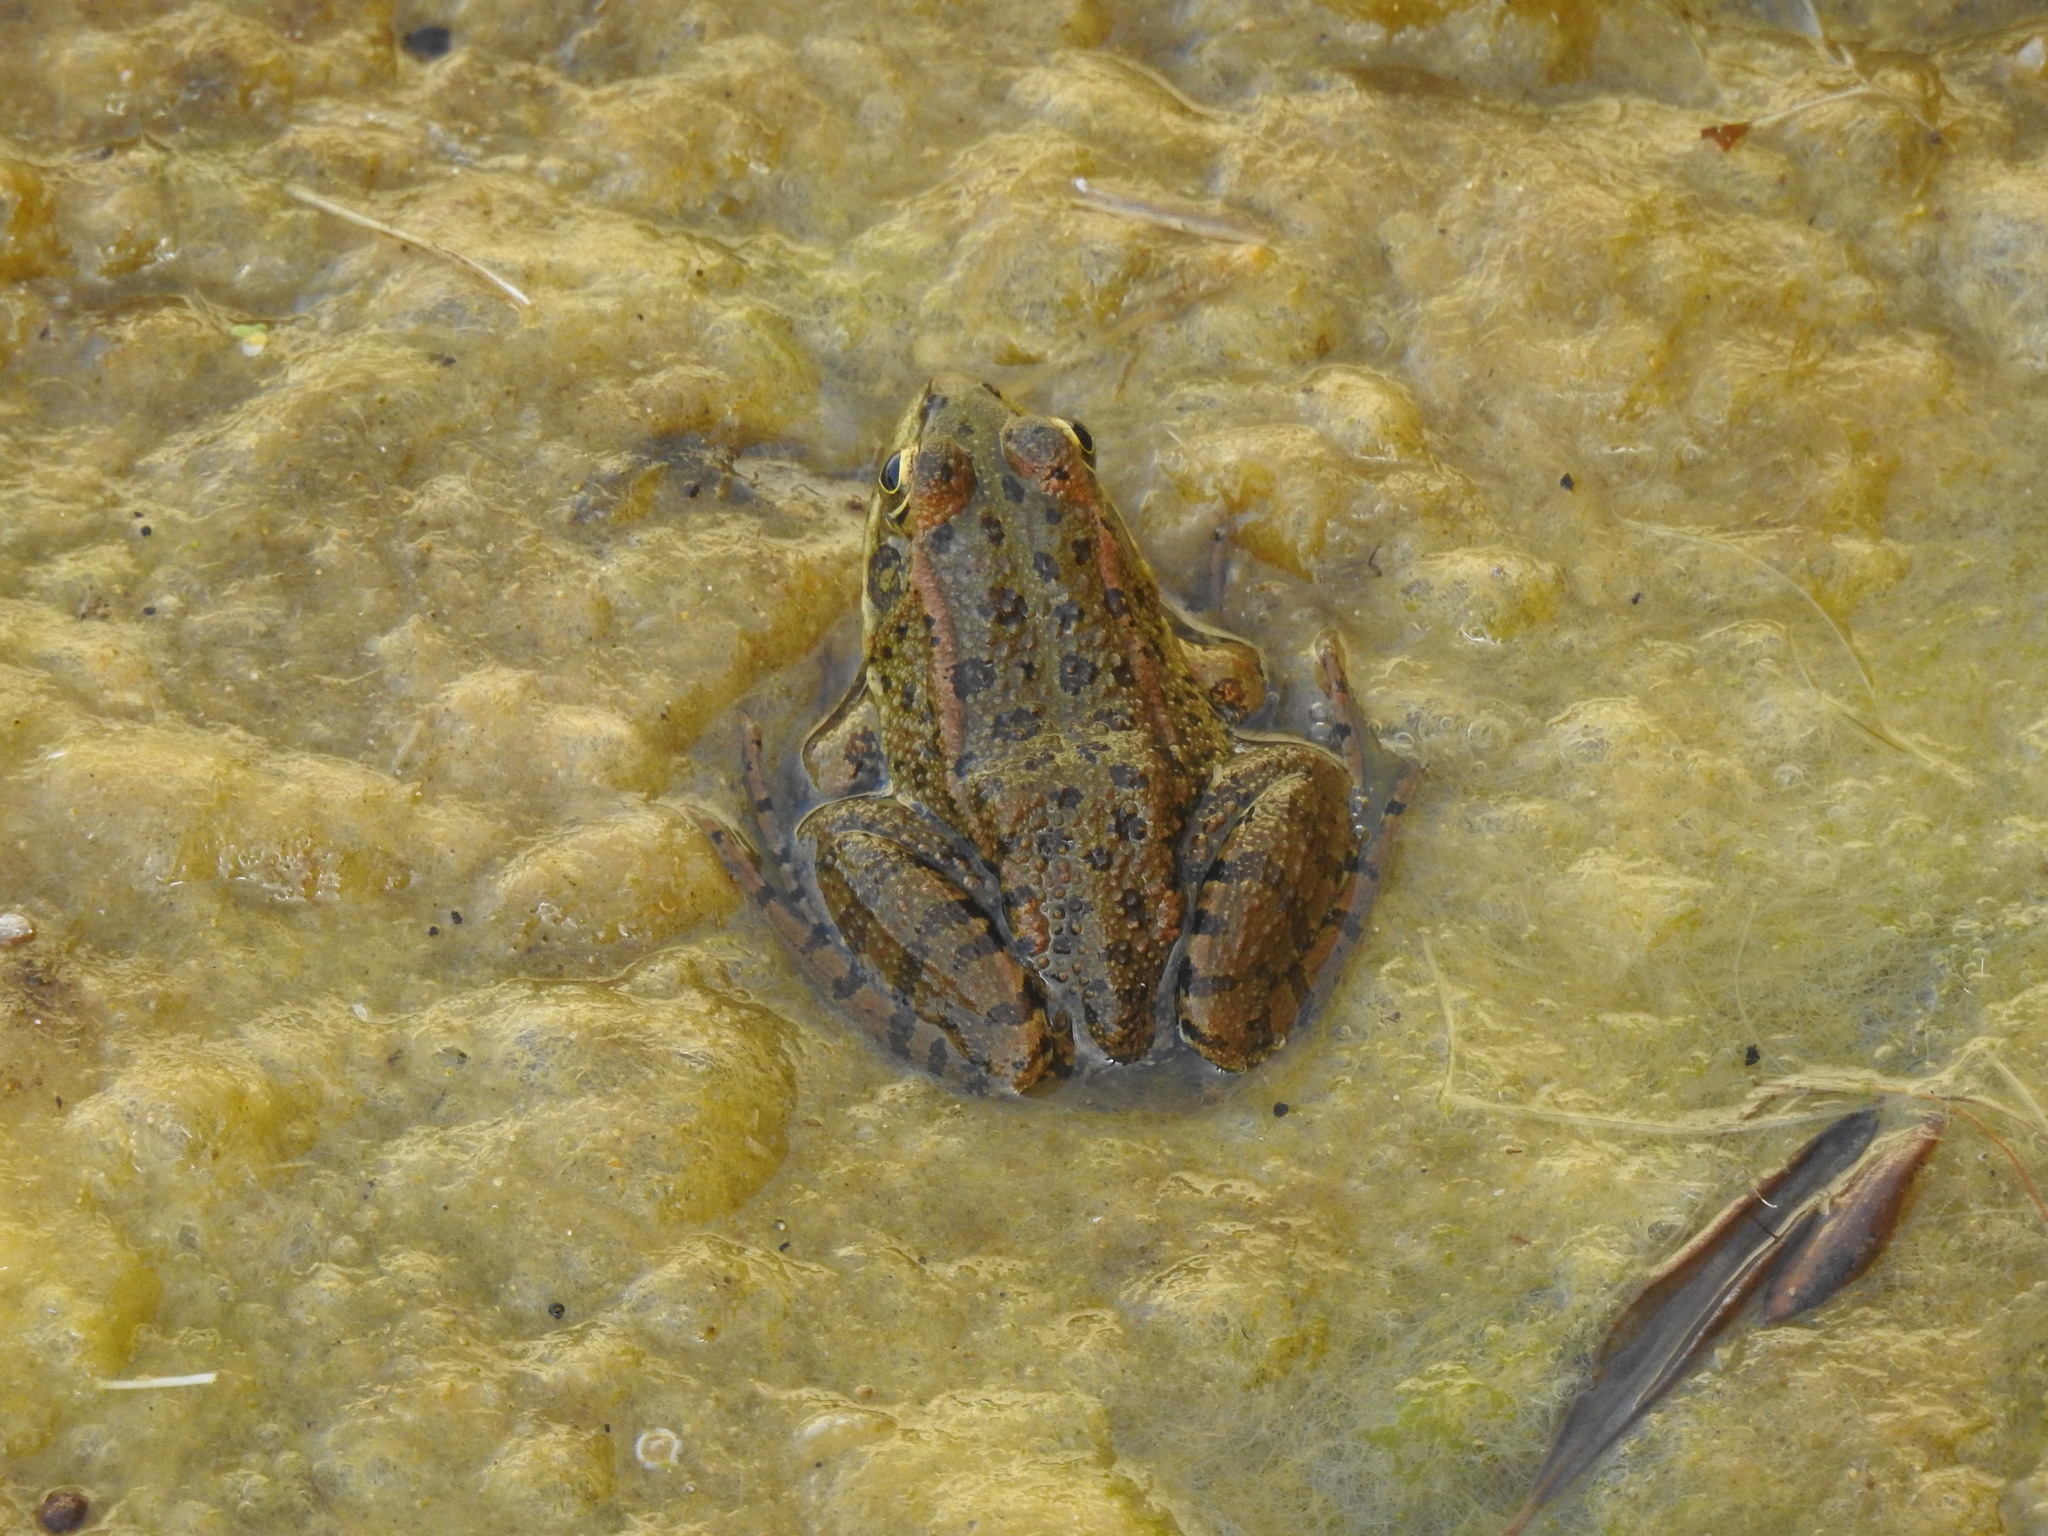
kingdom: Animalia
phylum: Chordata
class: Amphibia
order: Anura
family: Ranidae
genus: Pelophylax
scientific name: Pelophylax perezi
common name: Perez's frog
